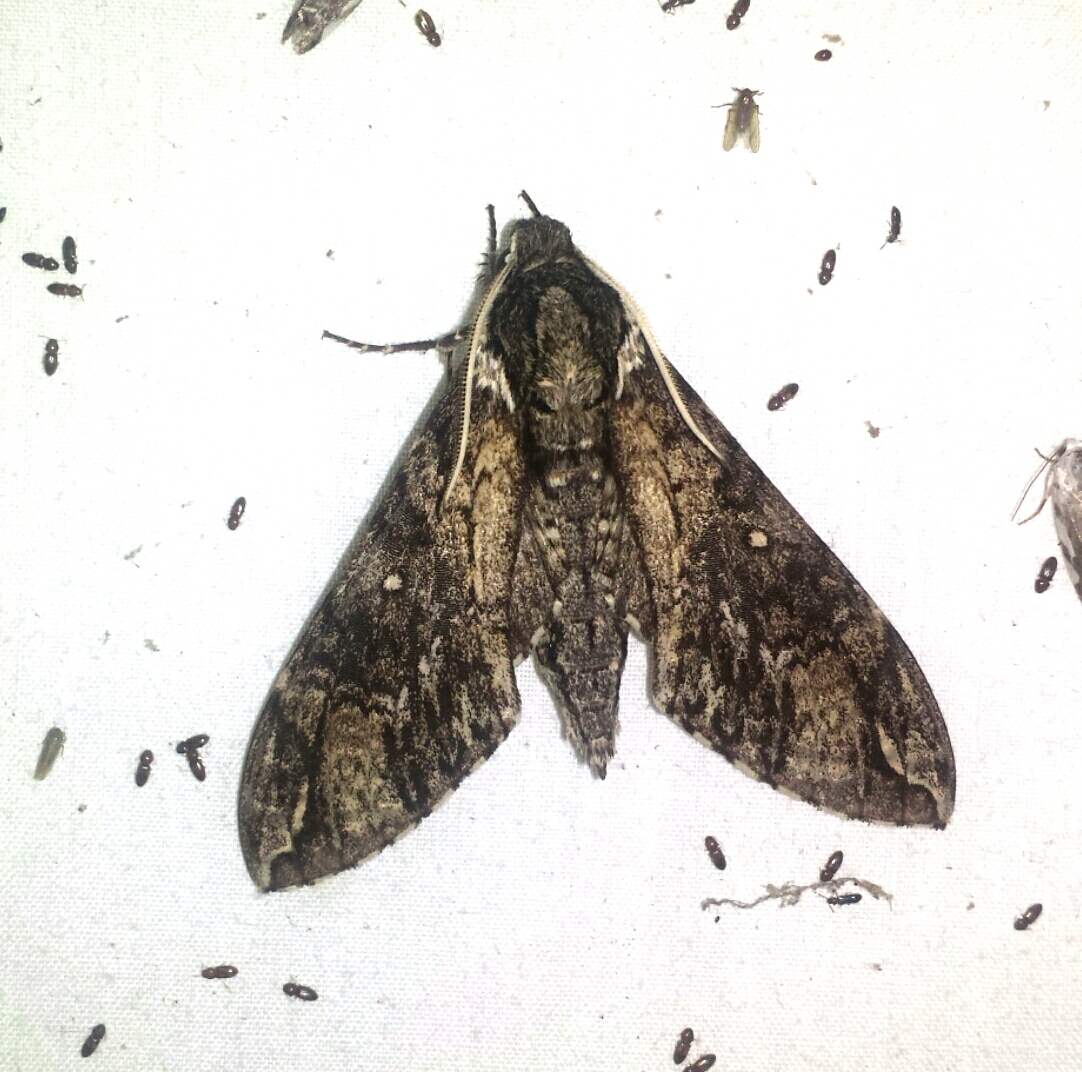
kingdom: Animalia
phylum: Arthropoda
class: Insecta
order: Lepidoptera
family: Sphingidae
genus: Manduca
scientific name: Manduca dilucida
